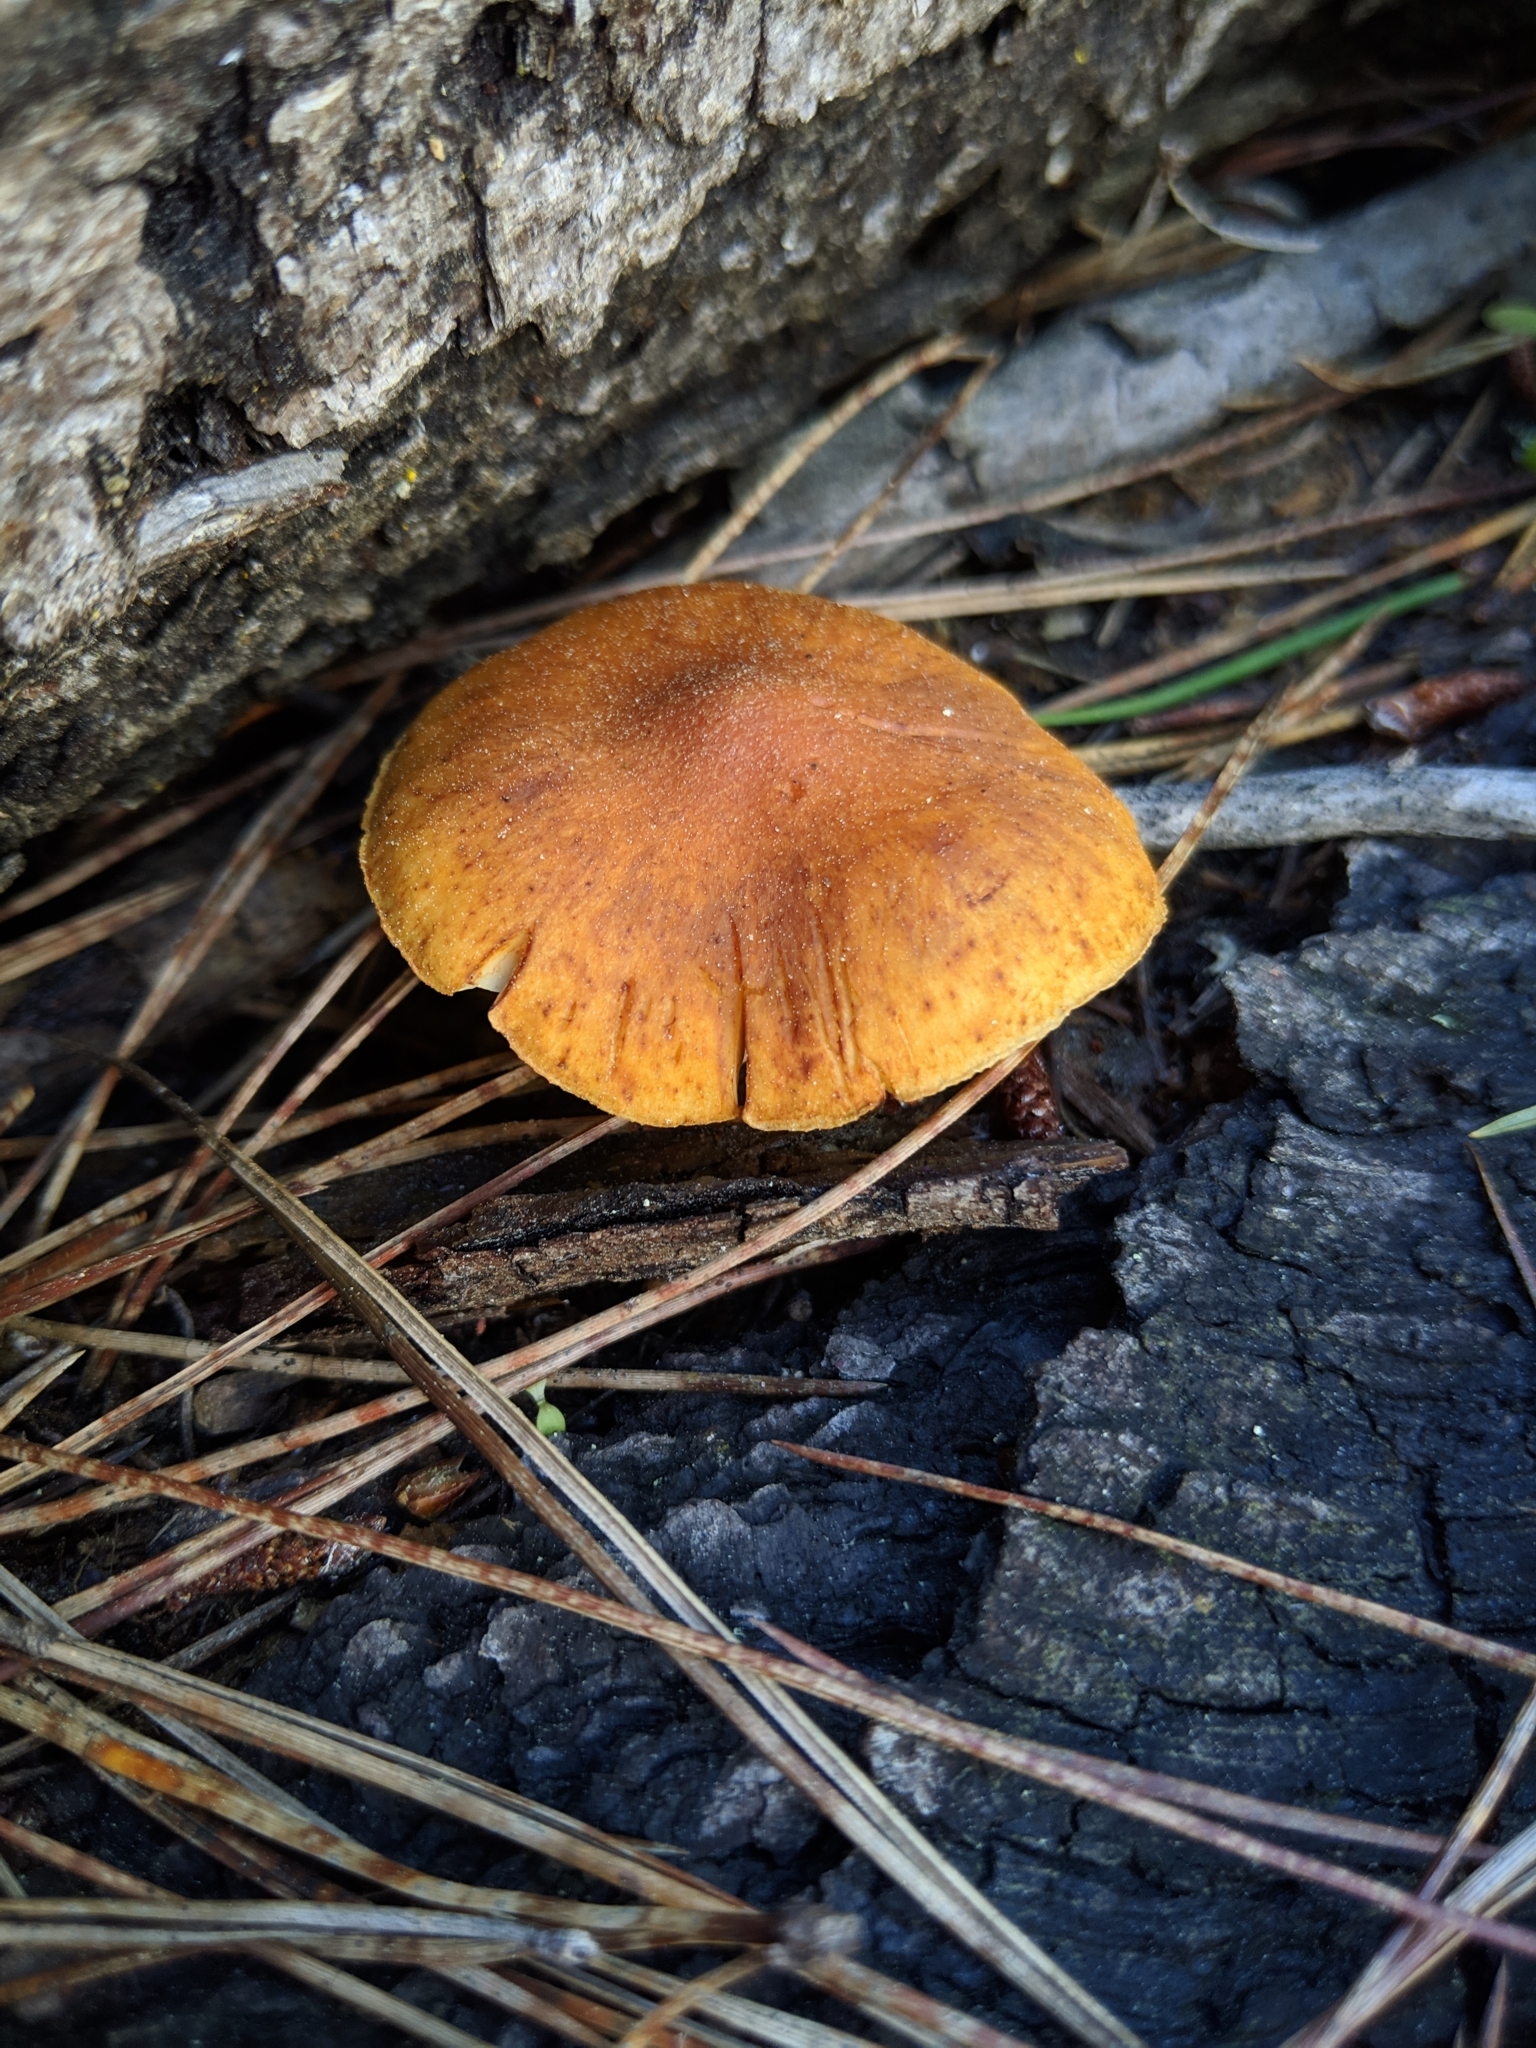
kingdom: Fungi
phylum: Basidiomycota
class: Agaricomycetes
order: Agaricales
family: Hymenogastraceae
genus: Gymnopilus
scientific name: Gymnopilus aurantiophyllus
